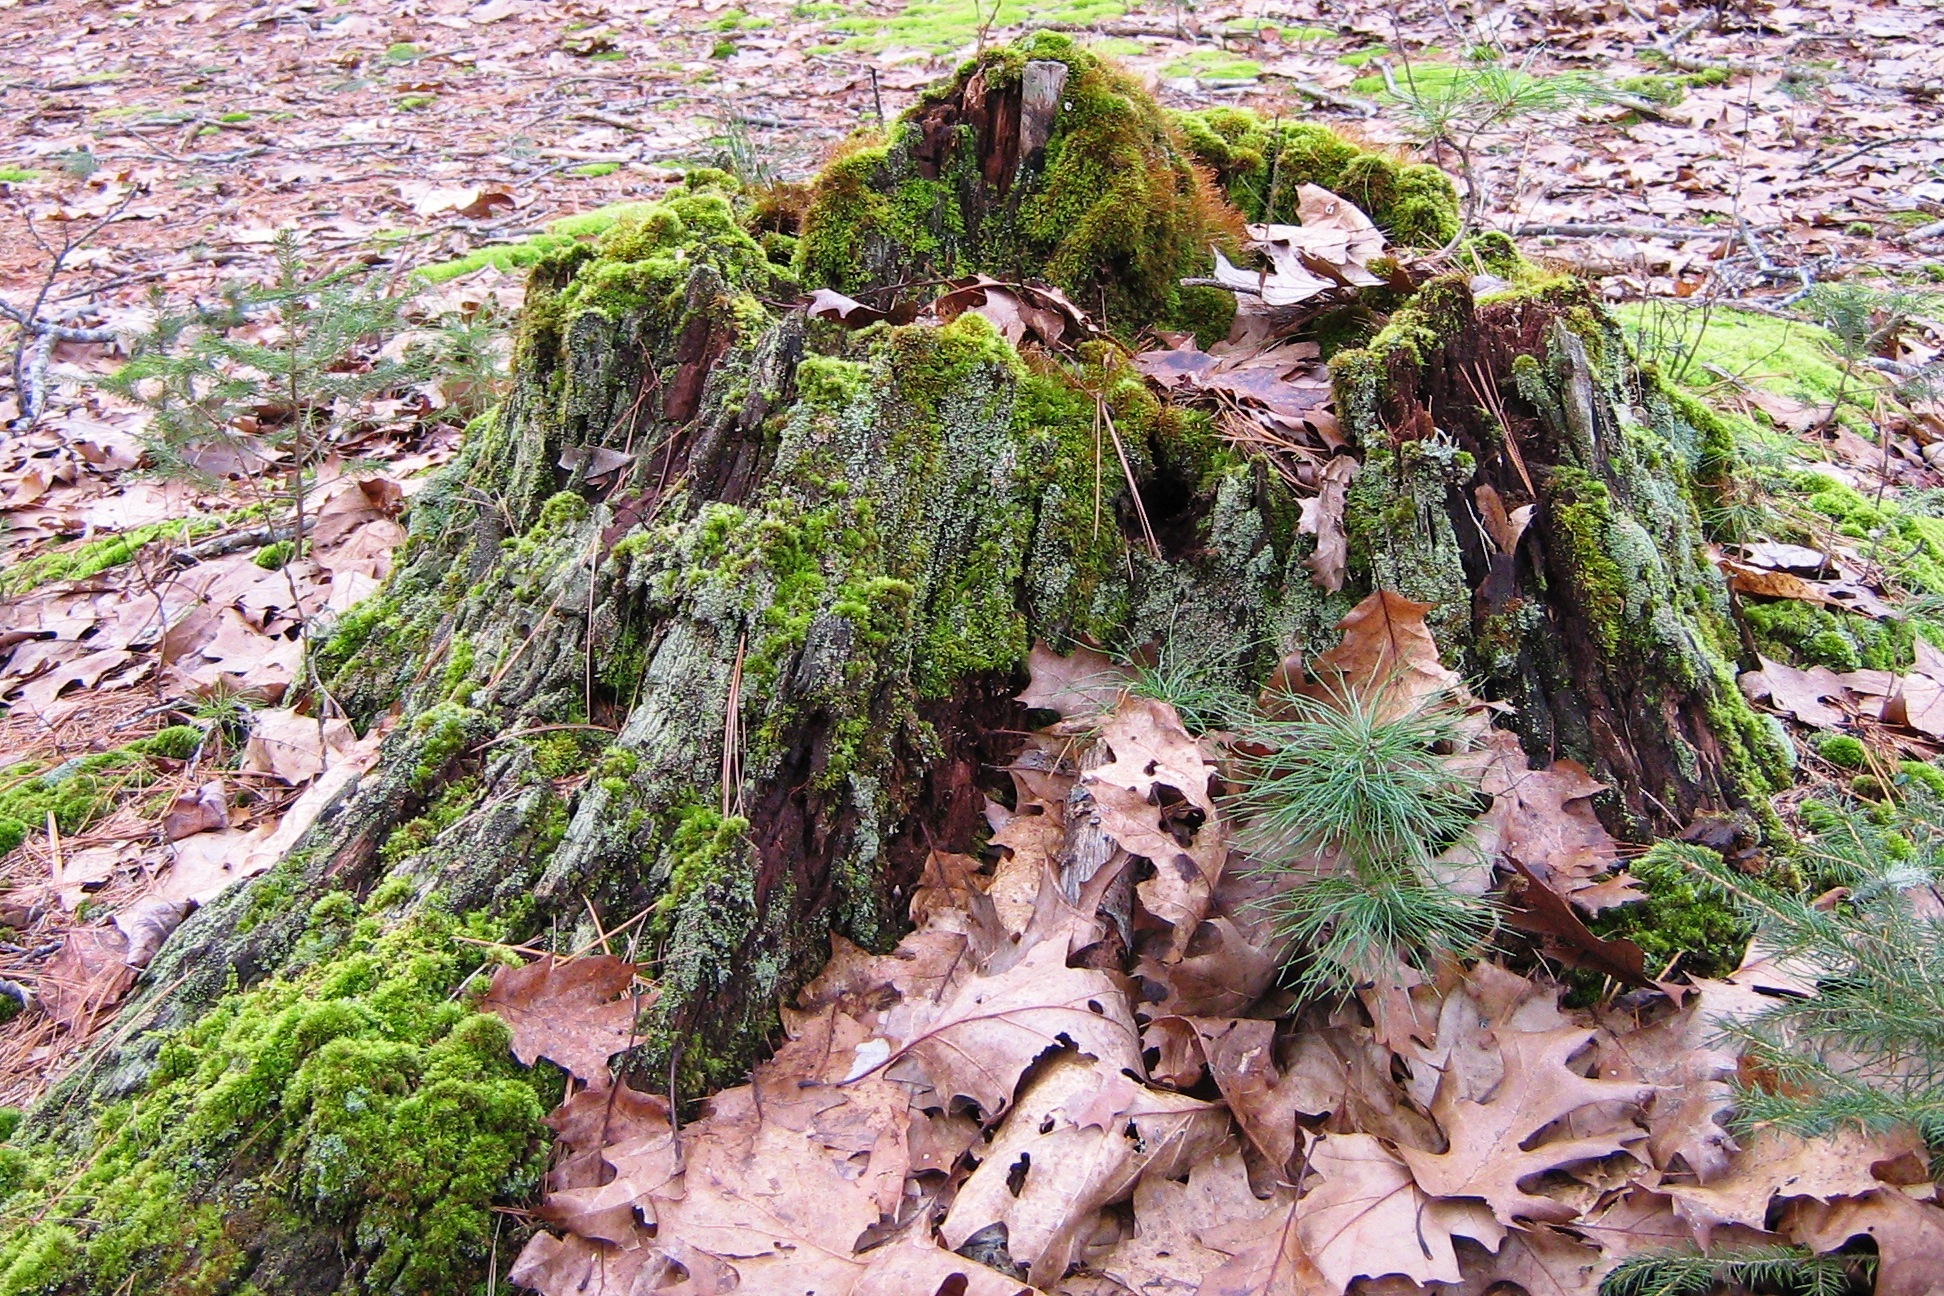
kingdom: Plantae
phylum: Tracheophyta
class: Pinopsida
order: Pinales
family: Pinaceae
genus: Pinus
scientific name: Pinus strobus
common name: Weymouth pine
